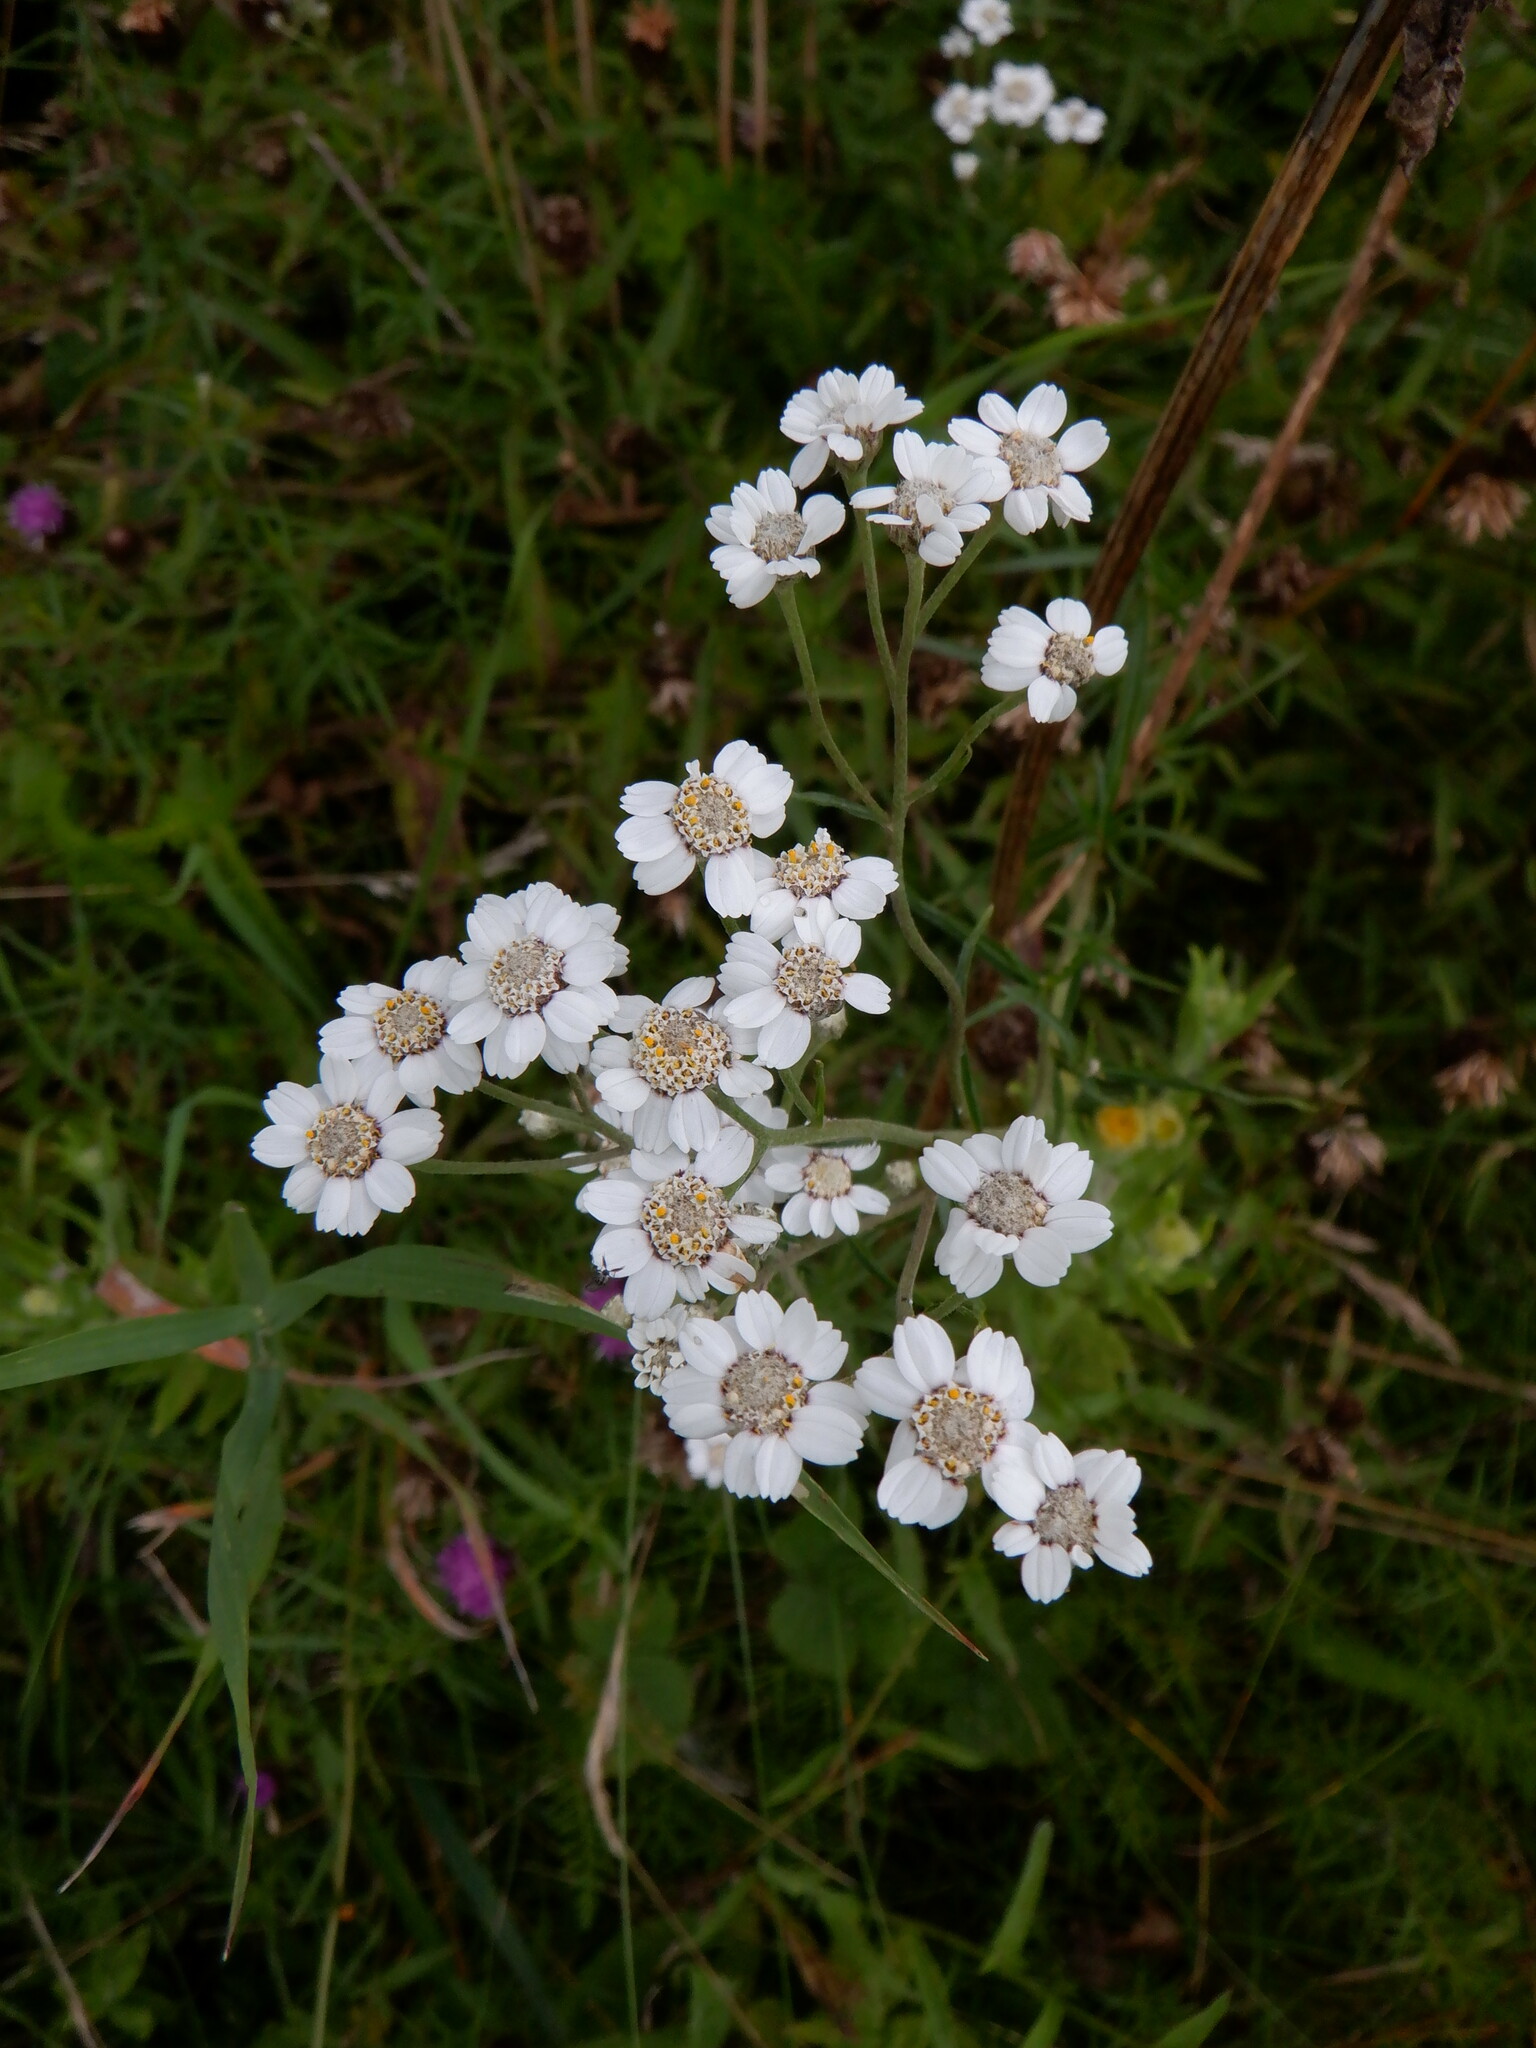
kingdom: Plantae
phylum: Tracheophyta
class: Magnoliopsida
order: Asterales
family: Asteraceae
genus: Achillea
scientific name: Achillea ptarmica
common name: Sneezeweed
